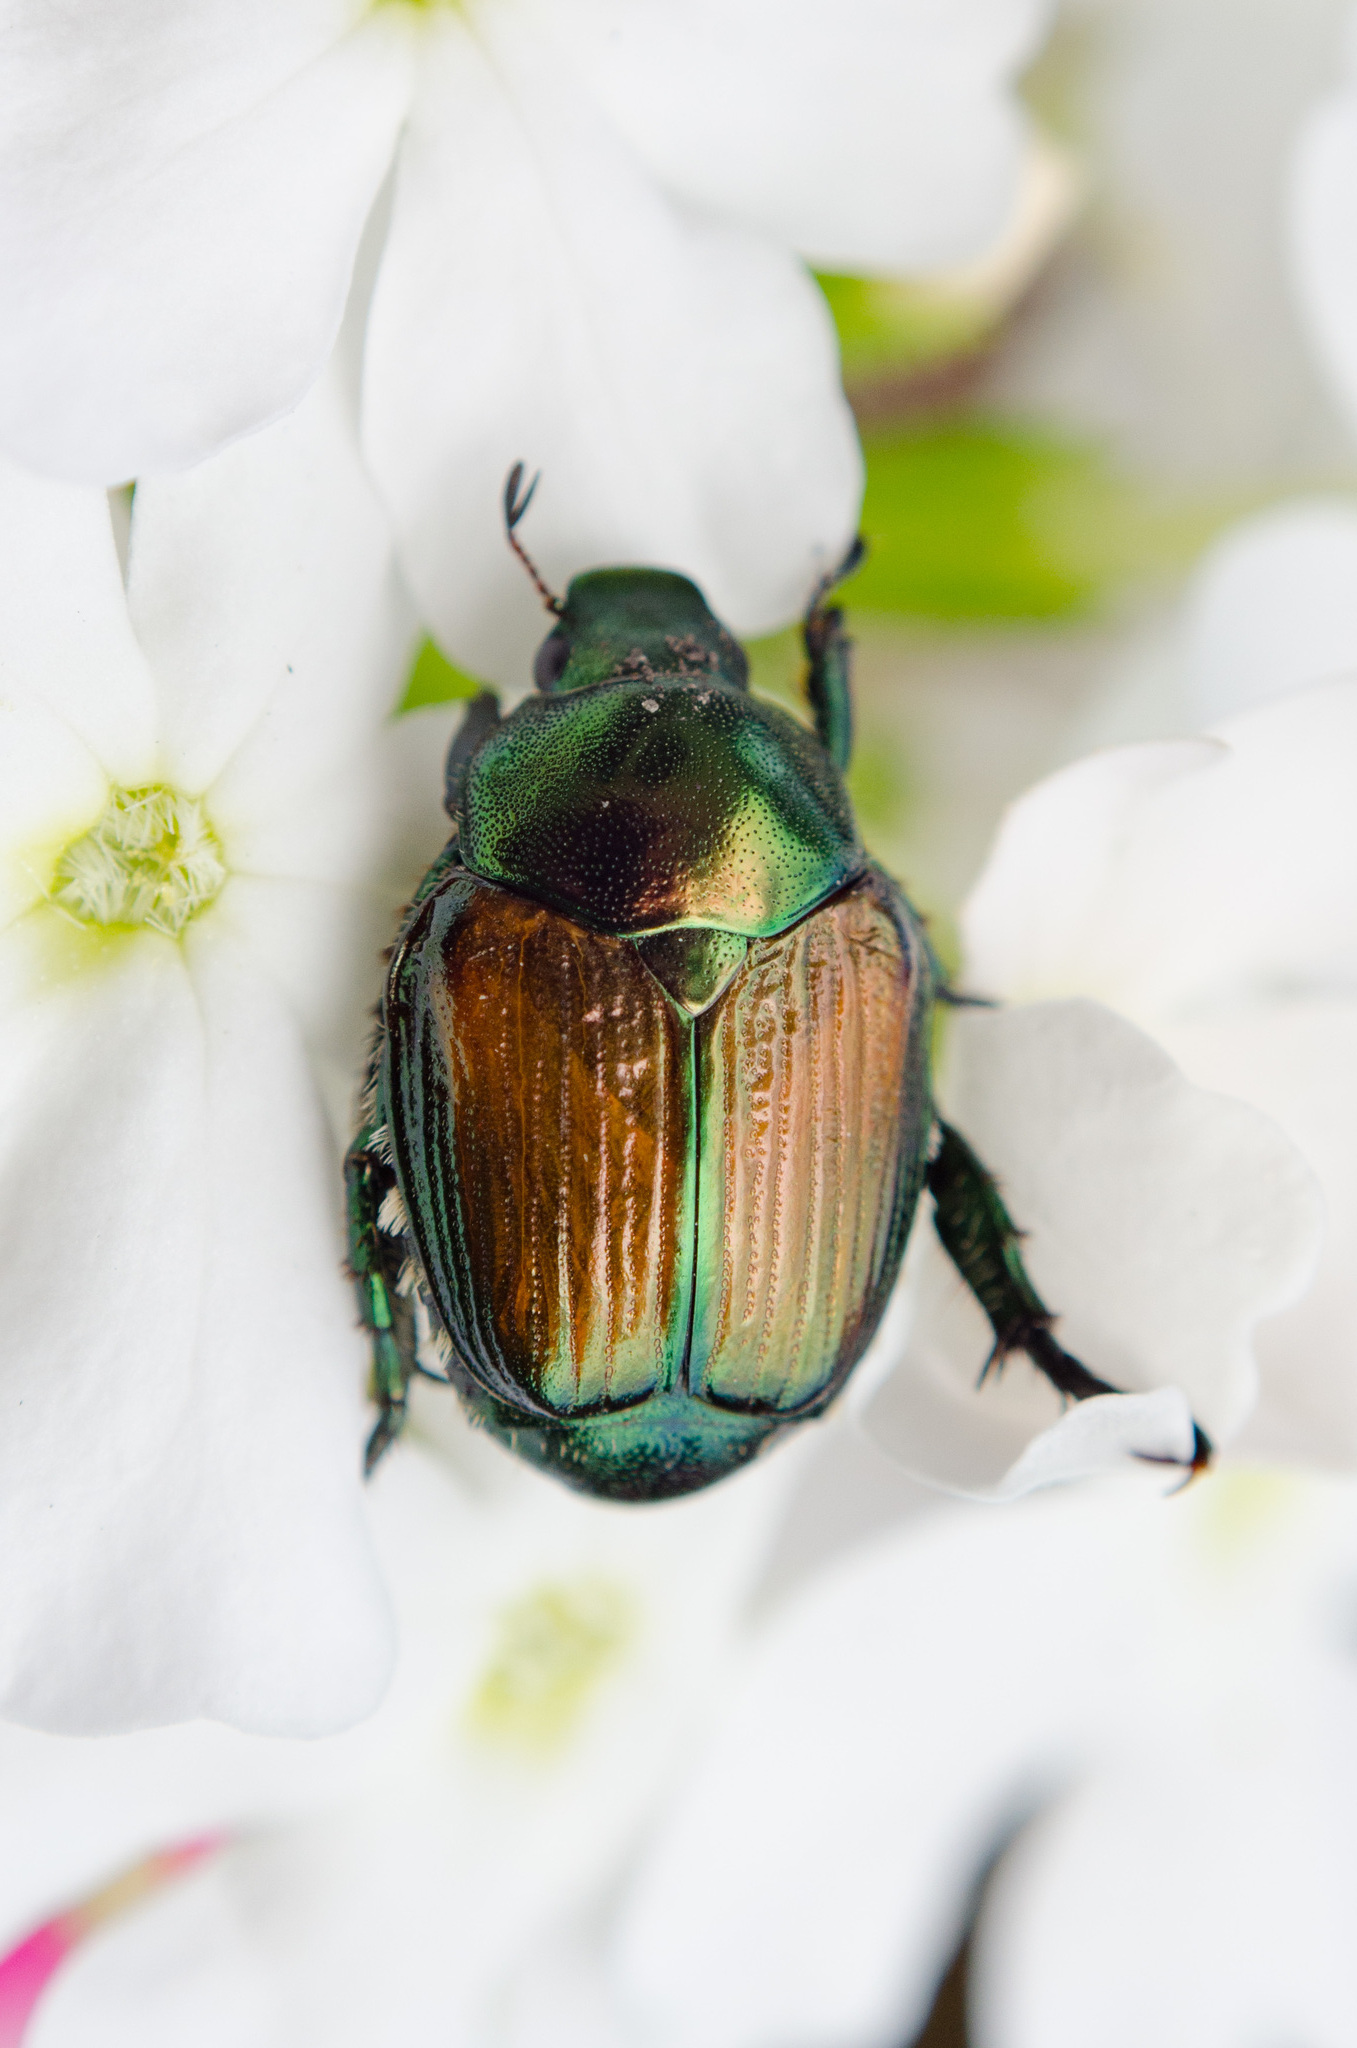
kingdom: Animalia
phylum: Arthropoda
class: Insecta
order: Coleoptera
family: Scarabaeidae
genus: Popillia
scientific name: Popillia japonica
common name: Japanese beetle
